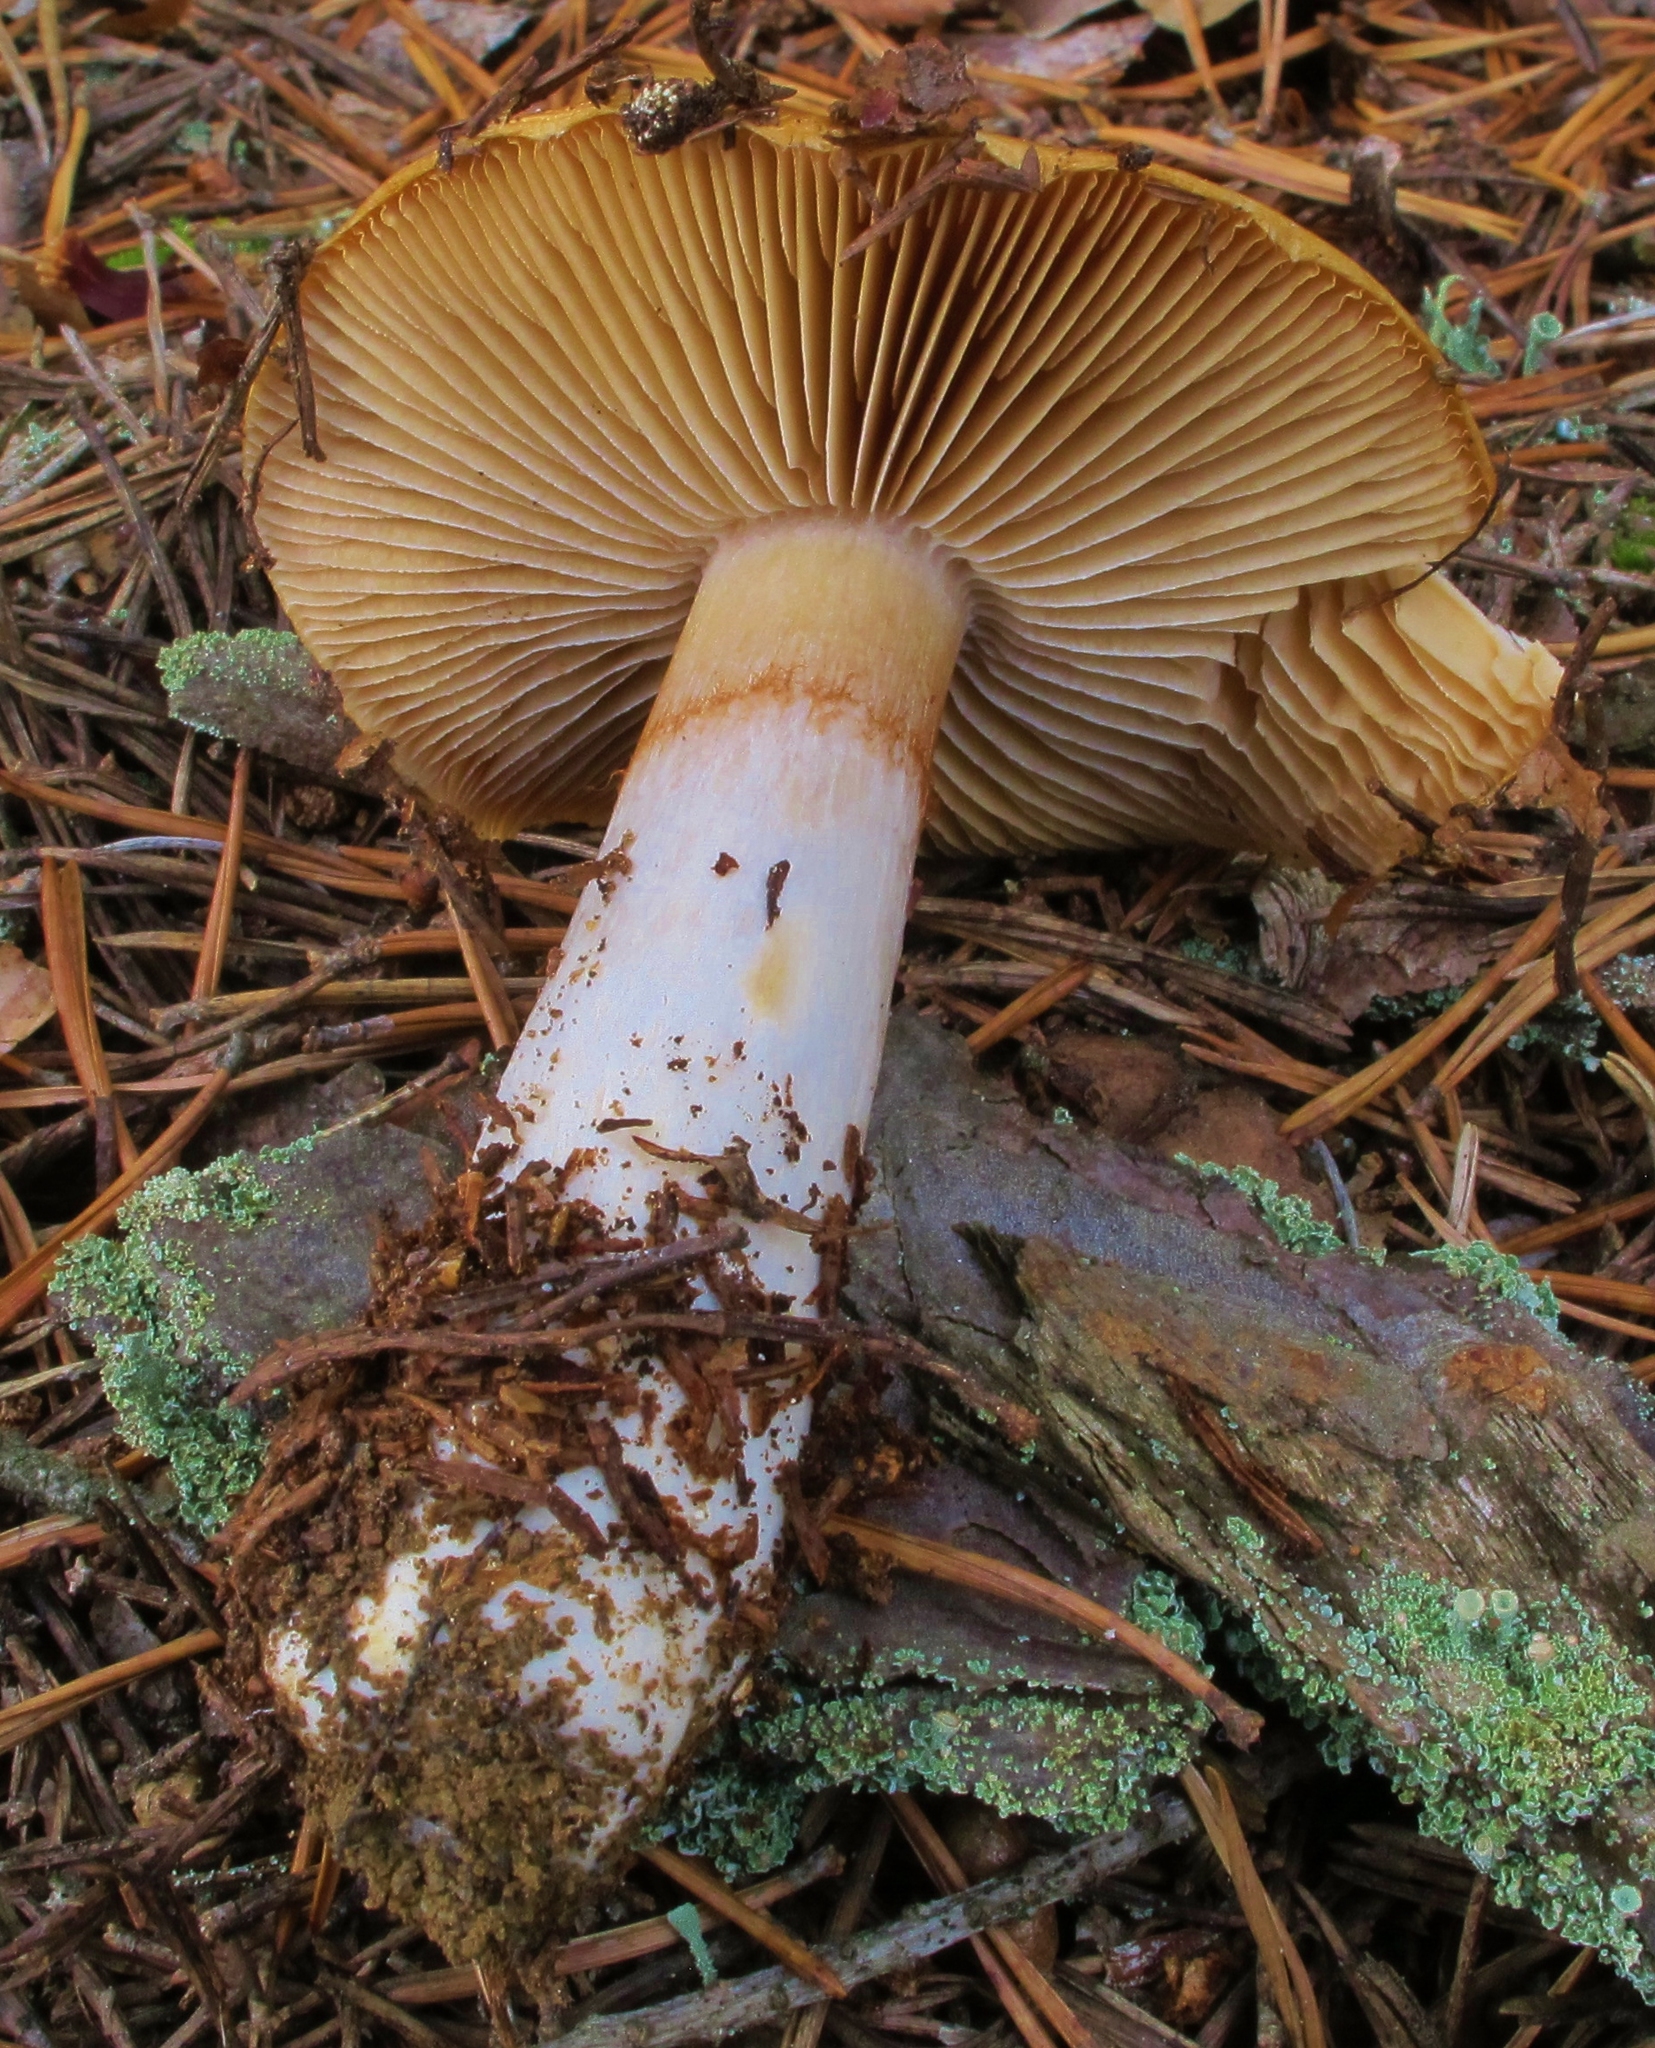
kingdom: Fungi
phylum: Basidiomycota
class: Agaricomycetes
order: Agaricales
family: Cortinariaceae
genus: Cortinarius
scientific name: Cortinarius mucosus
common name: Orange webcap
